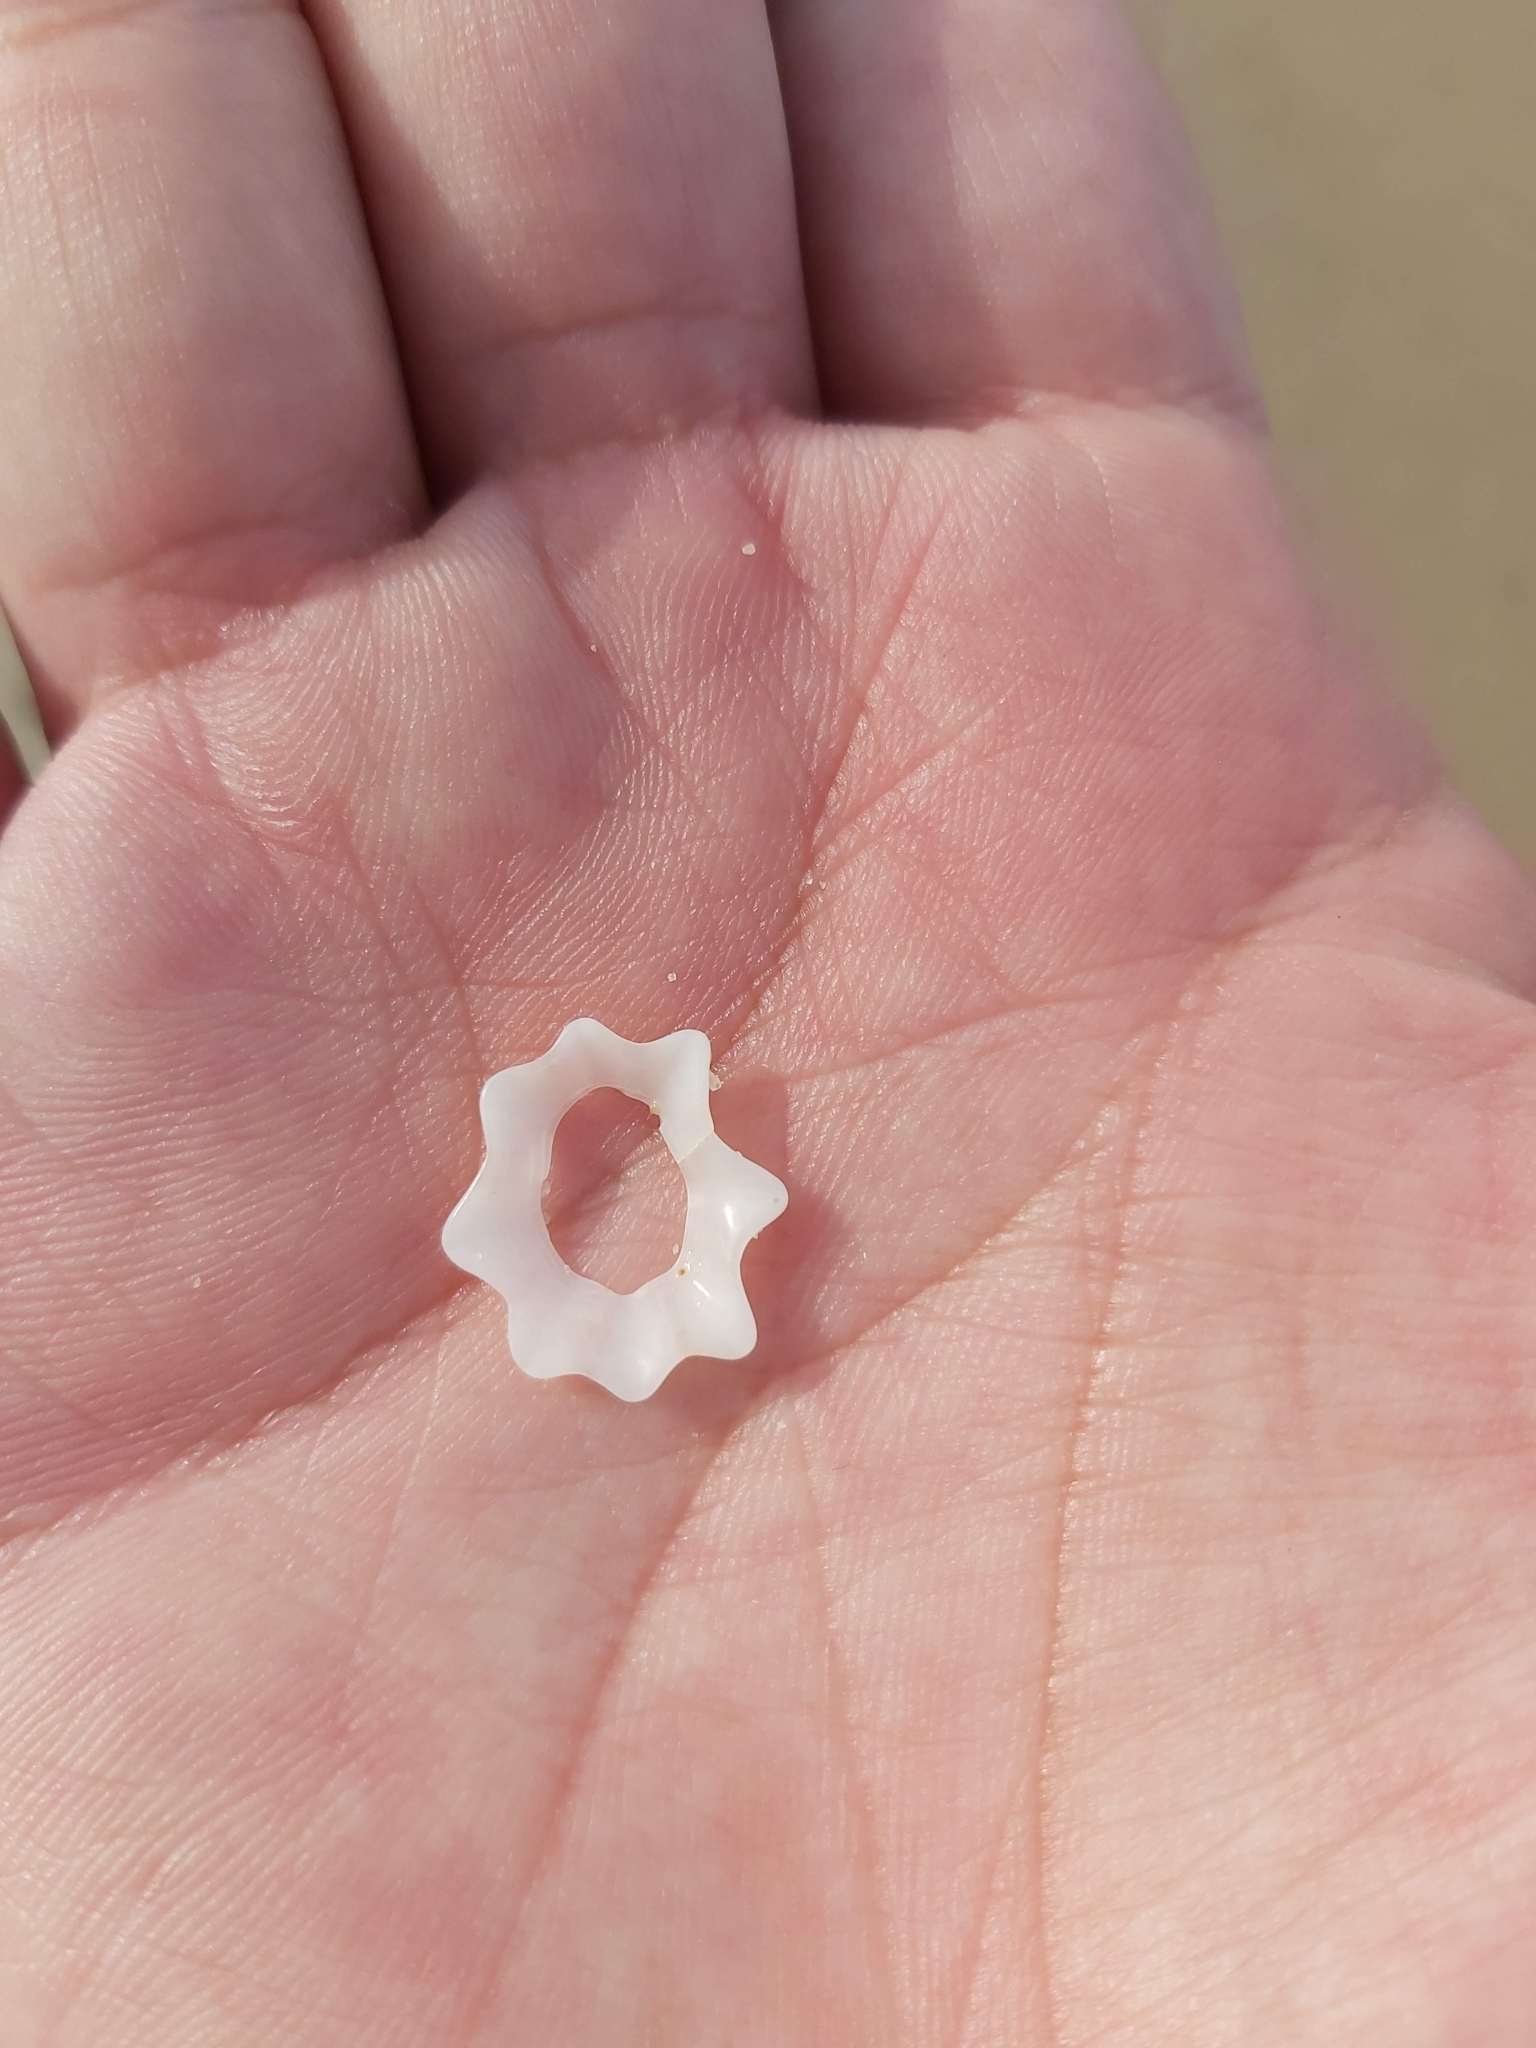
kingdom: Animalia
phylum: Mollusca
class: Gastropoda
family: Patellidae
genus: Scutellastra
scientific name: Scutellastra chapmani
